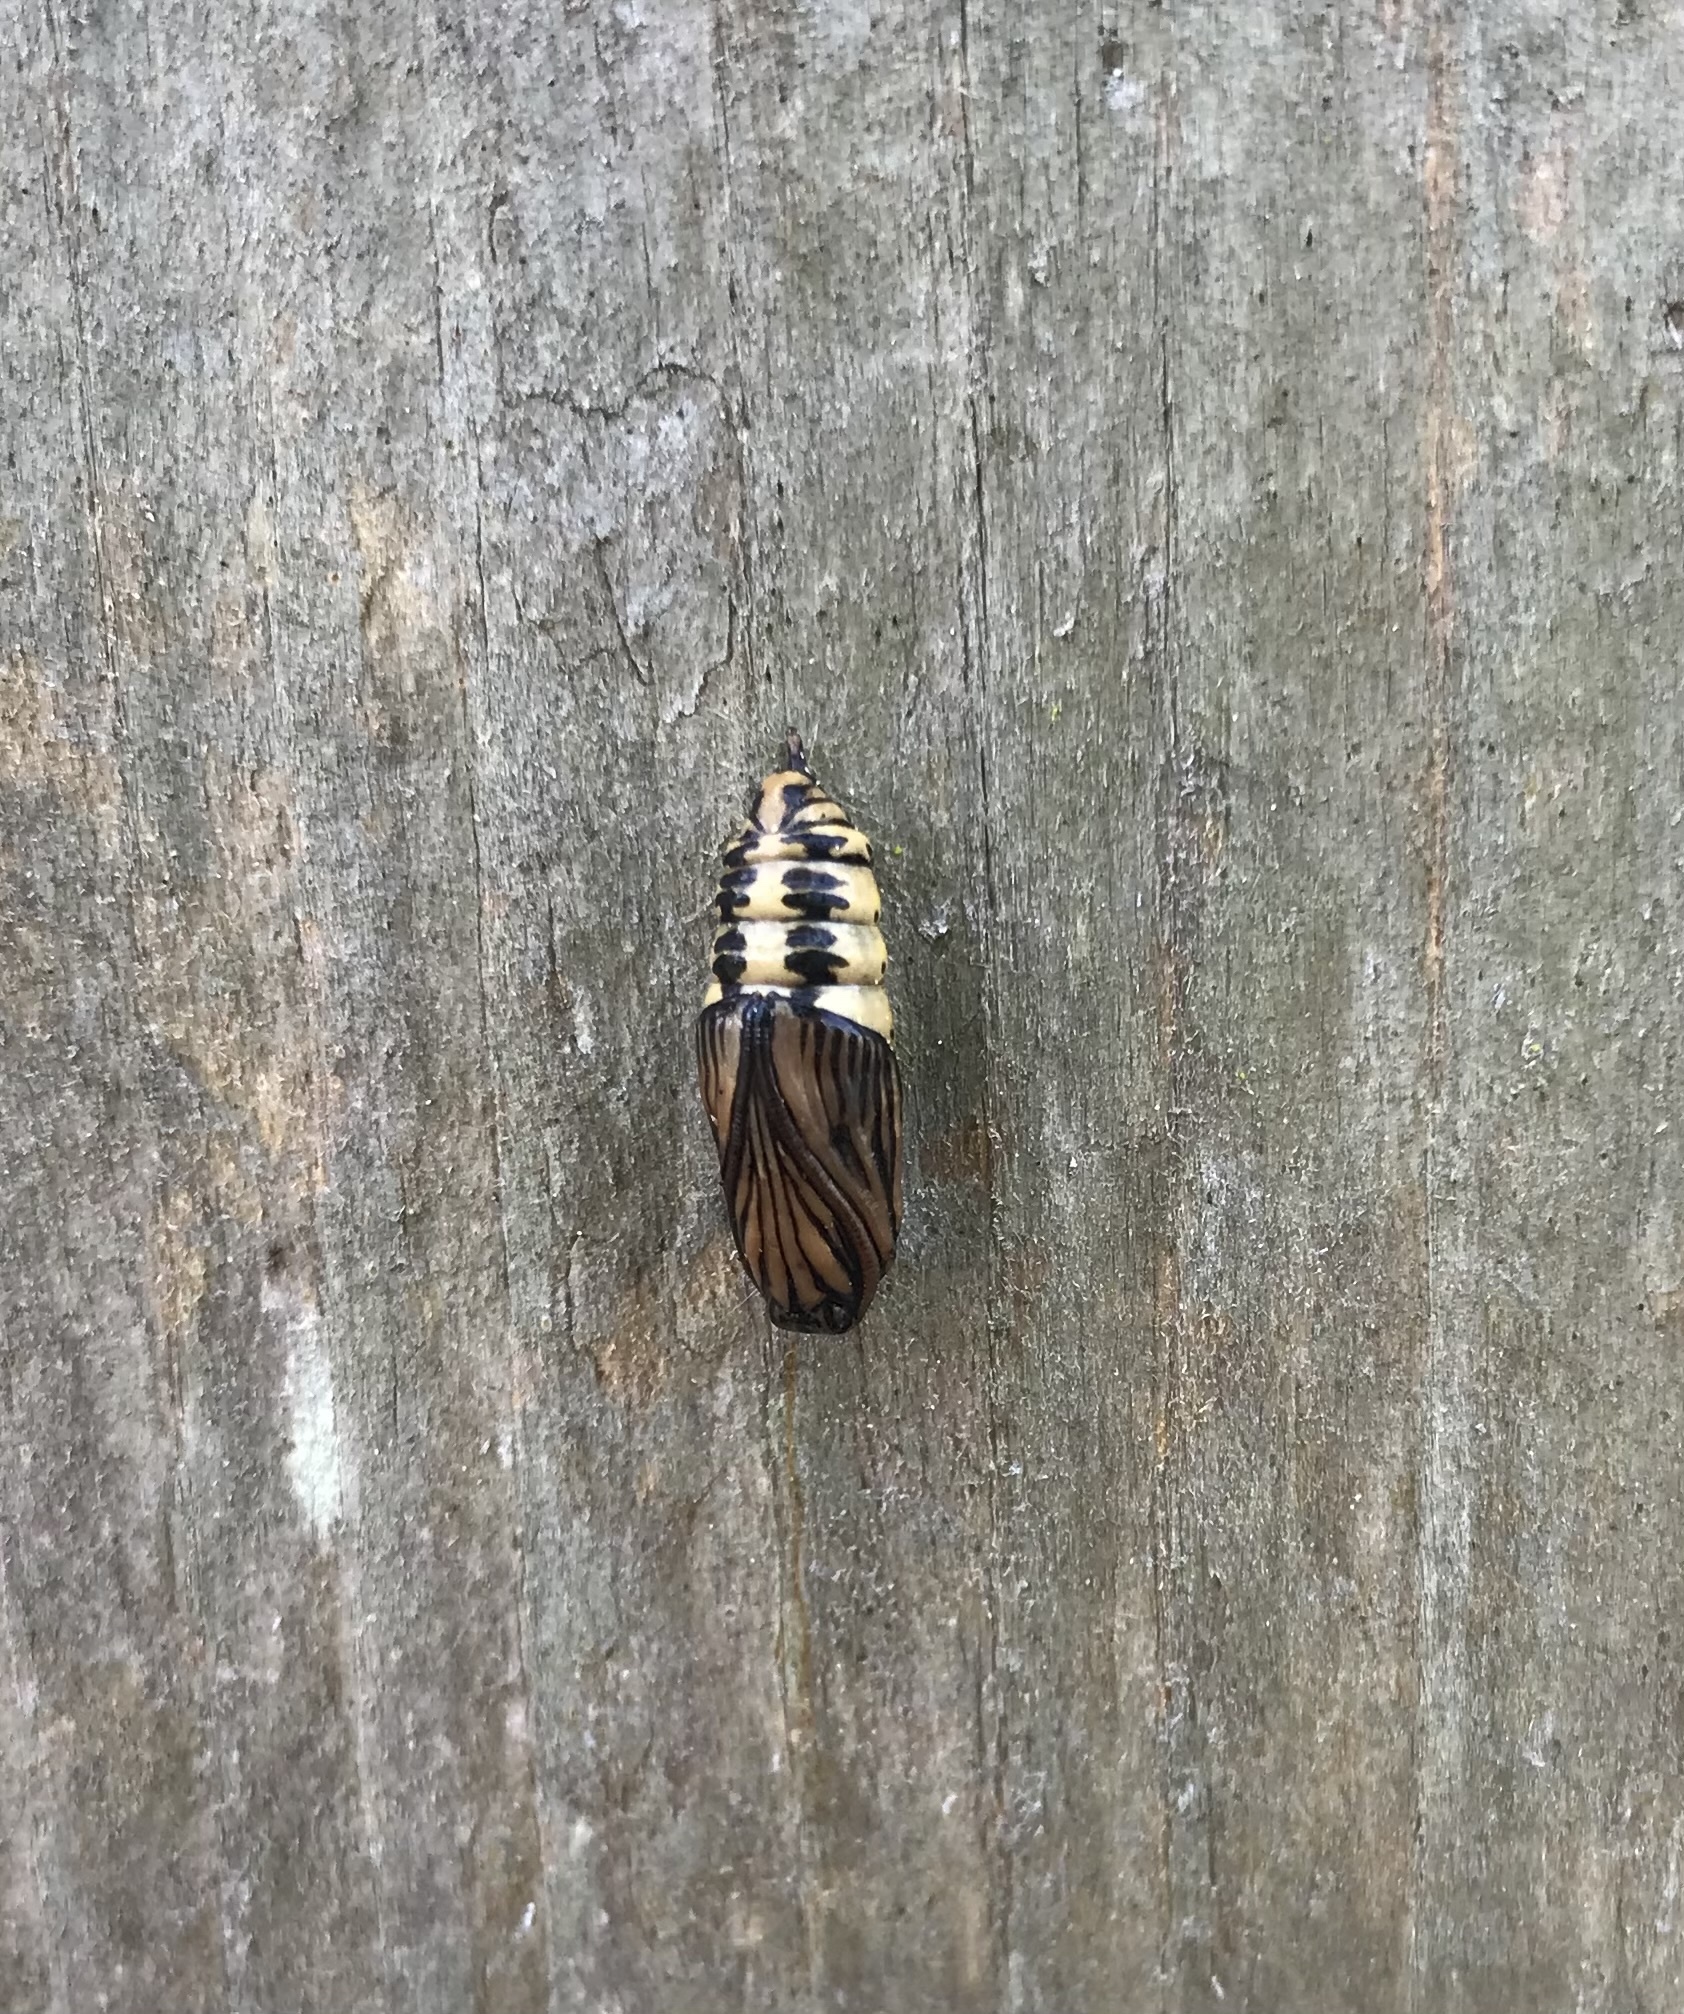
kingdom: Animalia
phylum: Arthropoda
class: Insecta
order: Lepidoptera
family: Notodontidae
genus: Phryganidia
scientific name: Phryganidia californica
